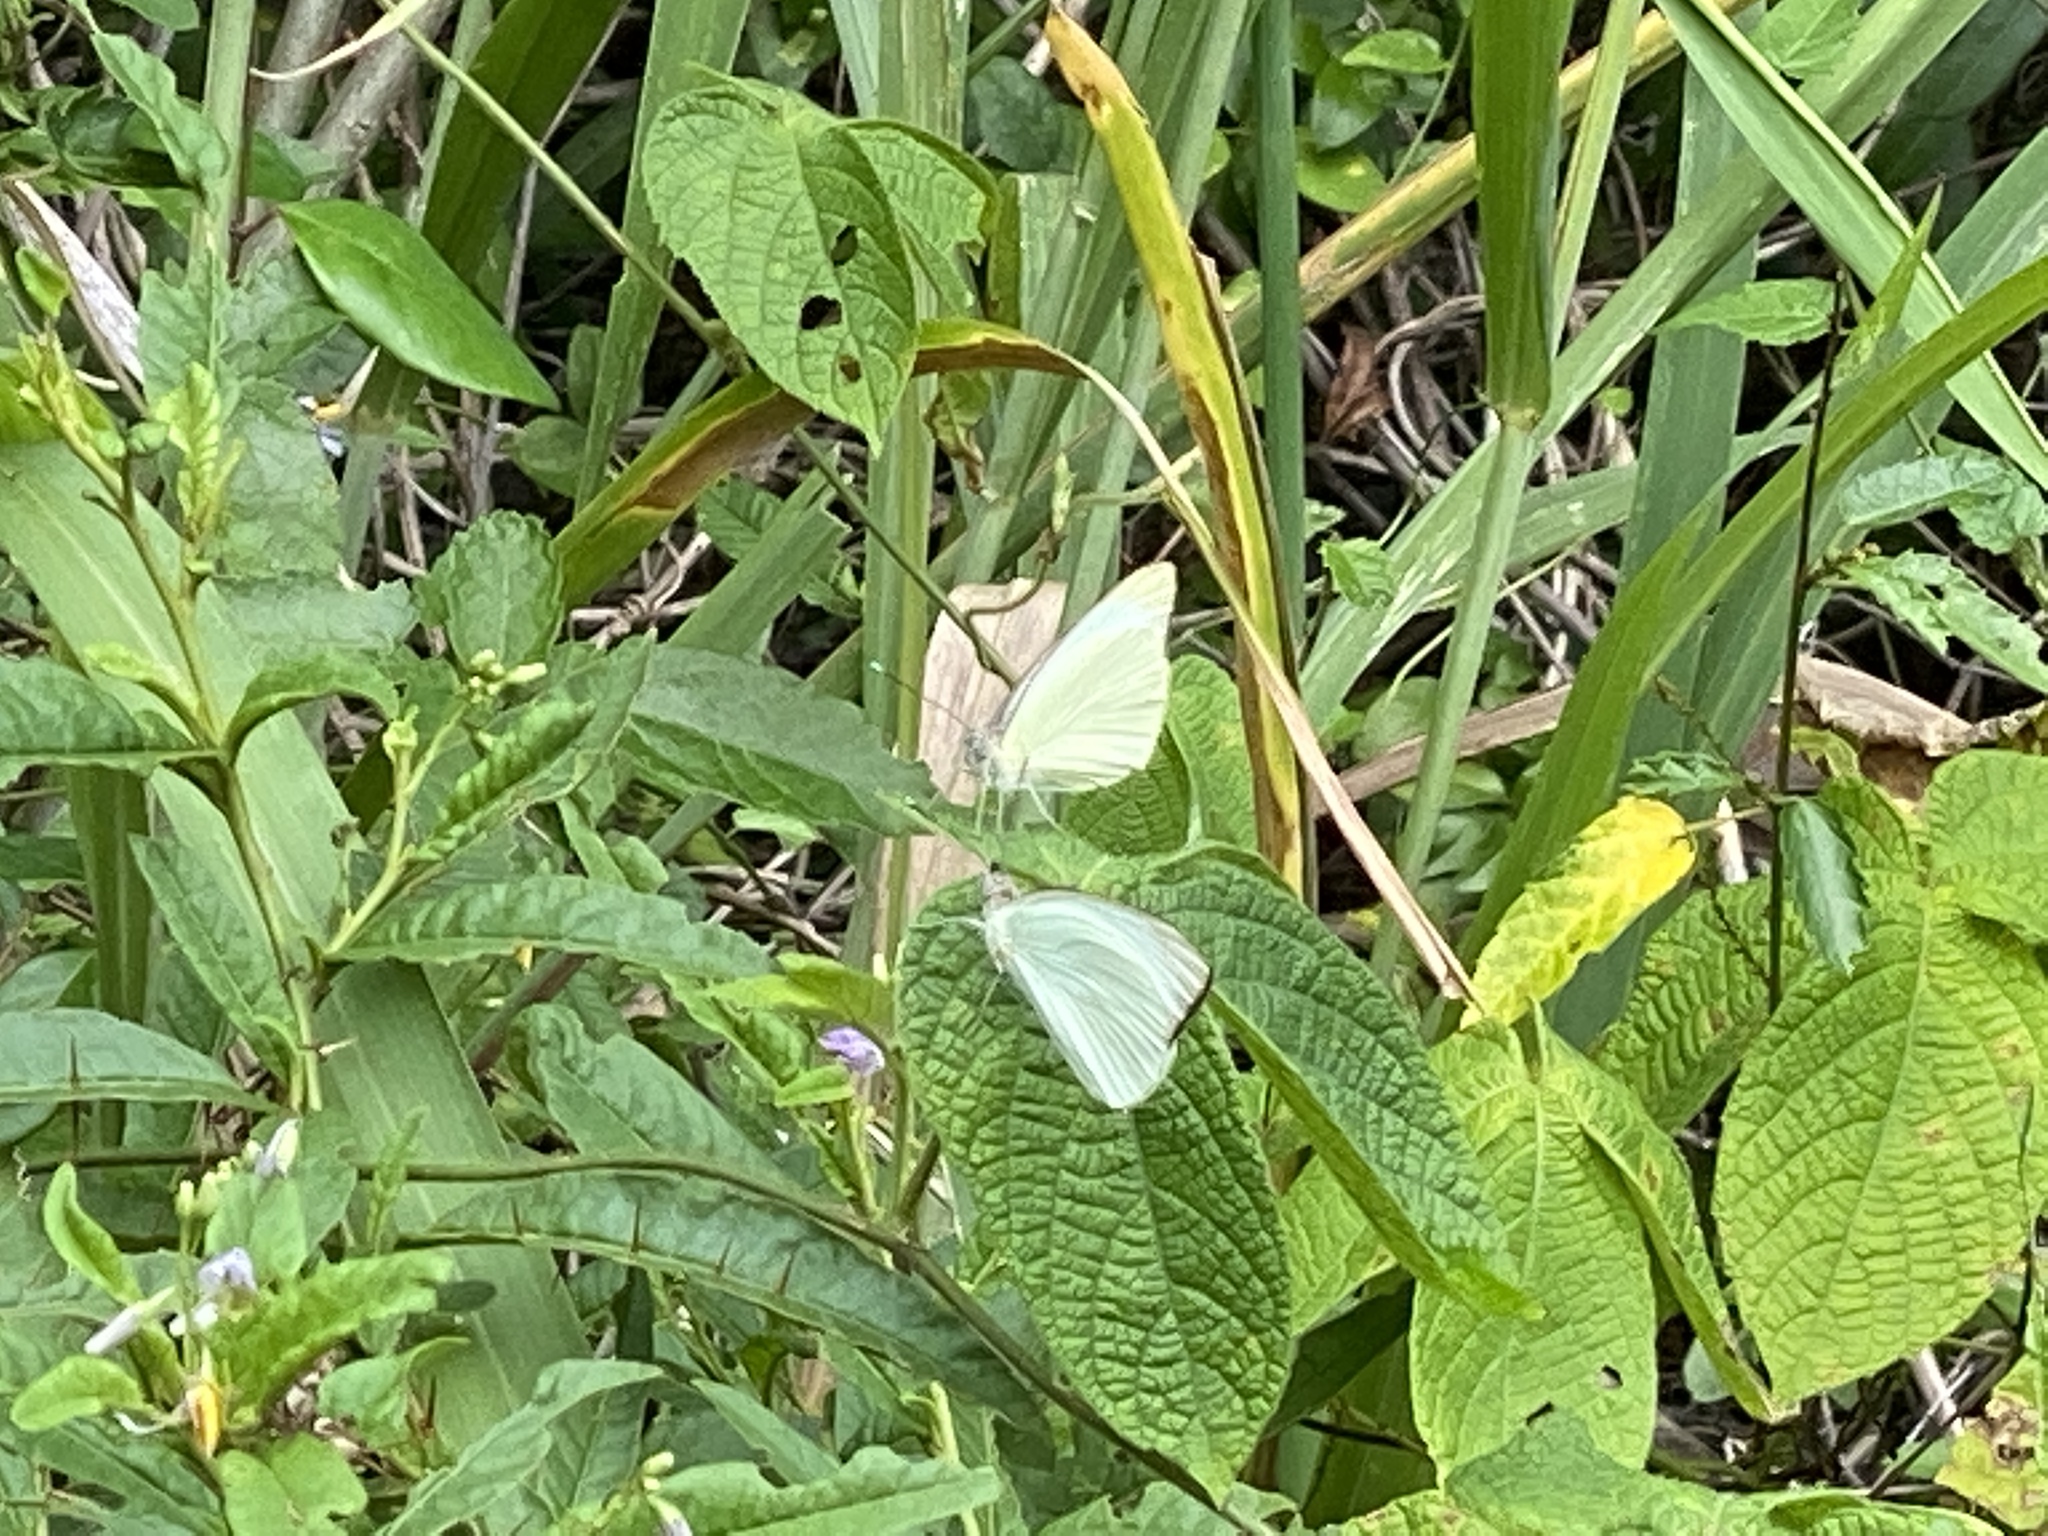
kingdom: Animalia
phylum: Arthropoda
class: Insecta
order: Lepidoptera
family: Pieridae
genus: Ascia
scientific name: Ascia monuste
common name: Great southern white
